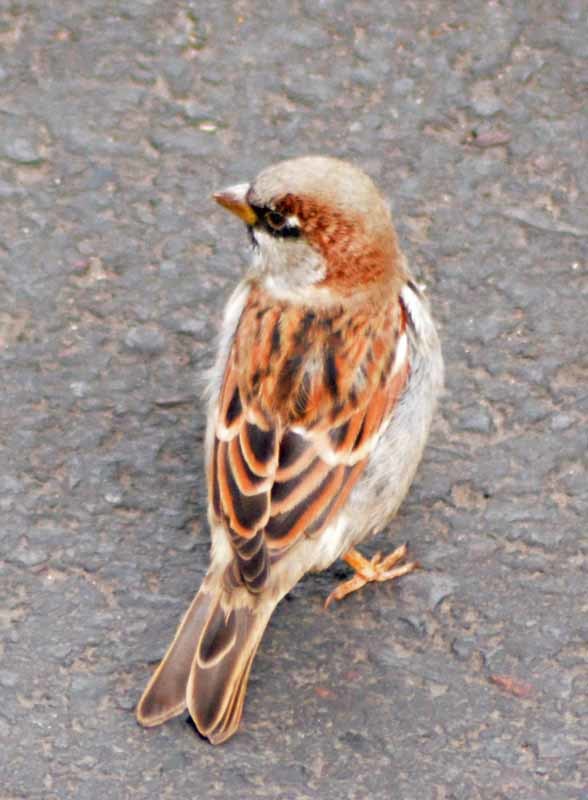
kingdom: Animalia
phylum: Chordata
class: Aves
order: Passeriformes
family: Passeridae
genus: Passer
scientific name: Passer domesticus
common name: House sparrow
